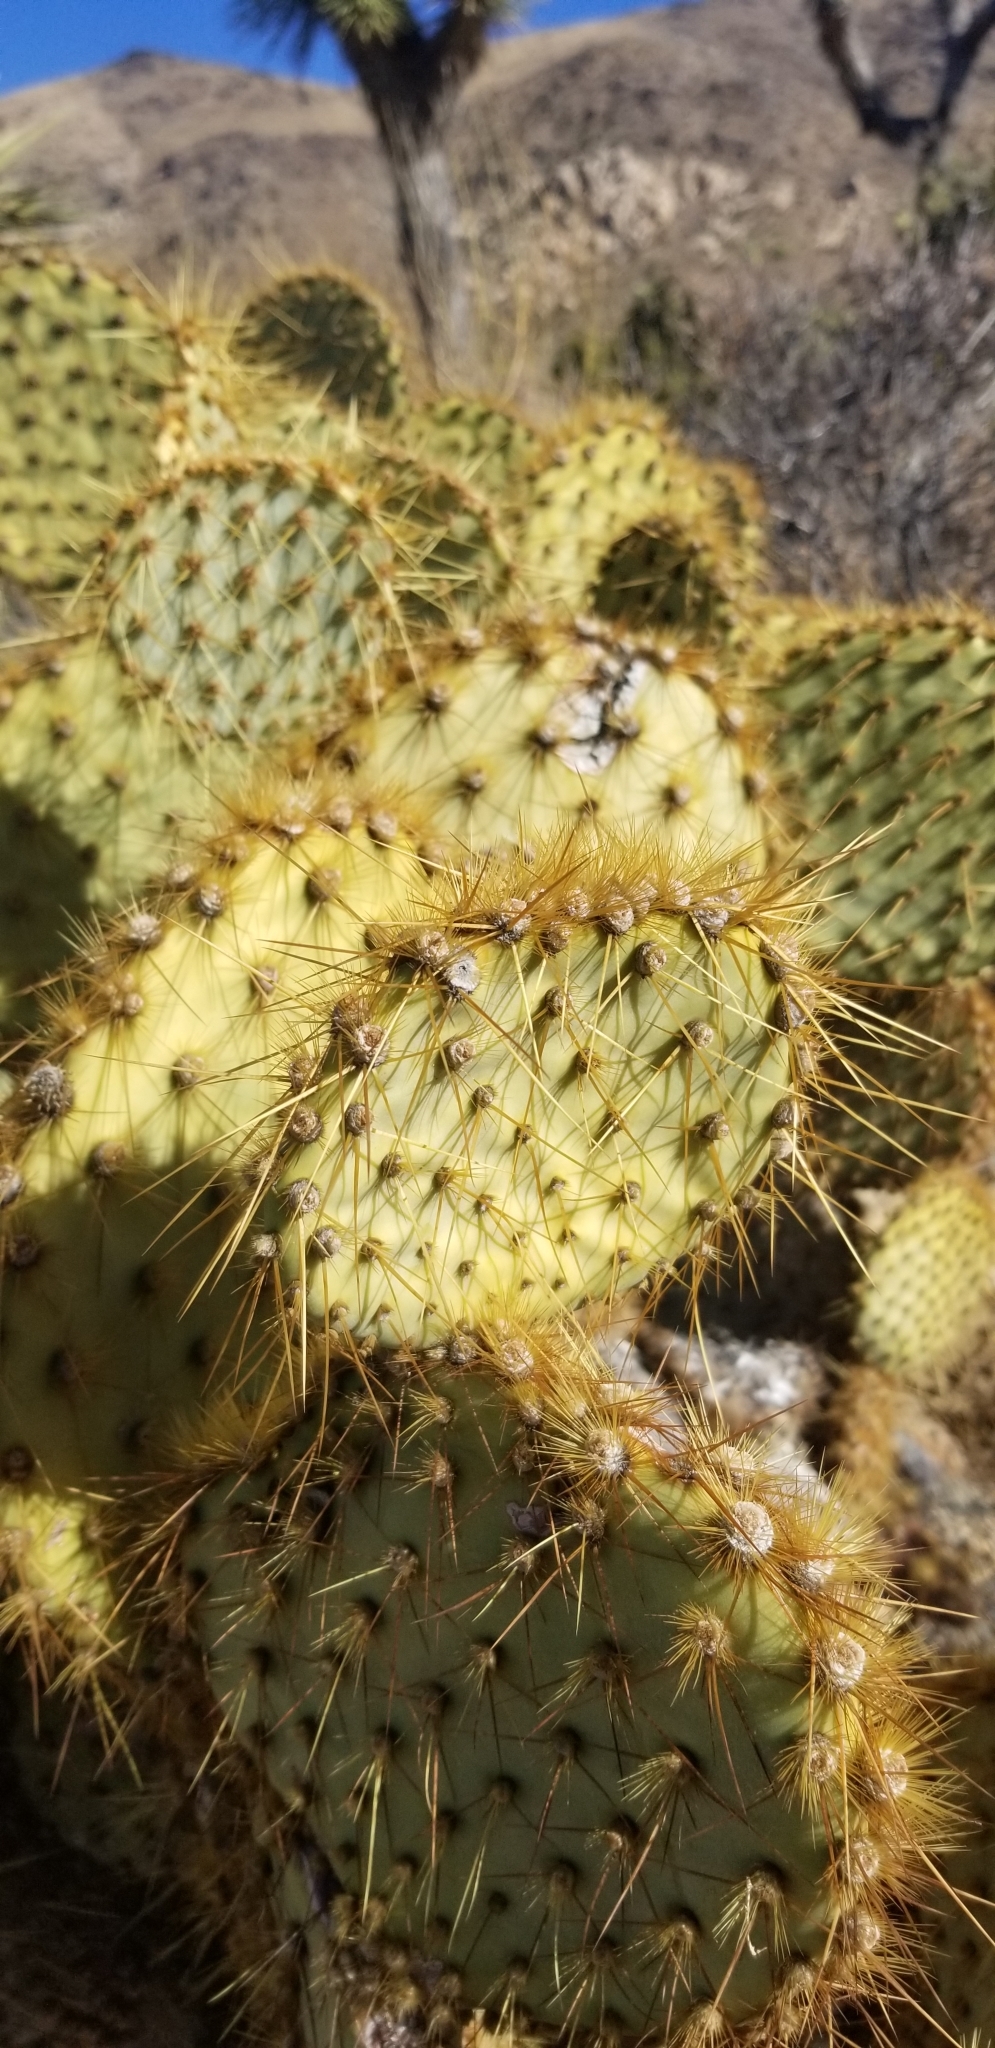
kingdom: Plantae
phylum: Tracheophyta
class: Magnoliopsida
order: Caryophyllales
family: Cactaceae
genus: Opuntia
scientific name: Opuntia chlorotica
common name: Dollar-joint prickly-pear
